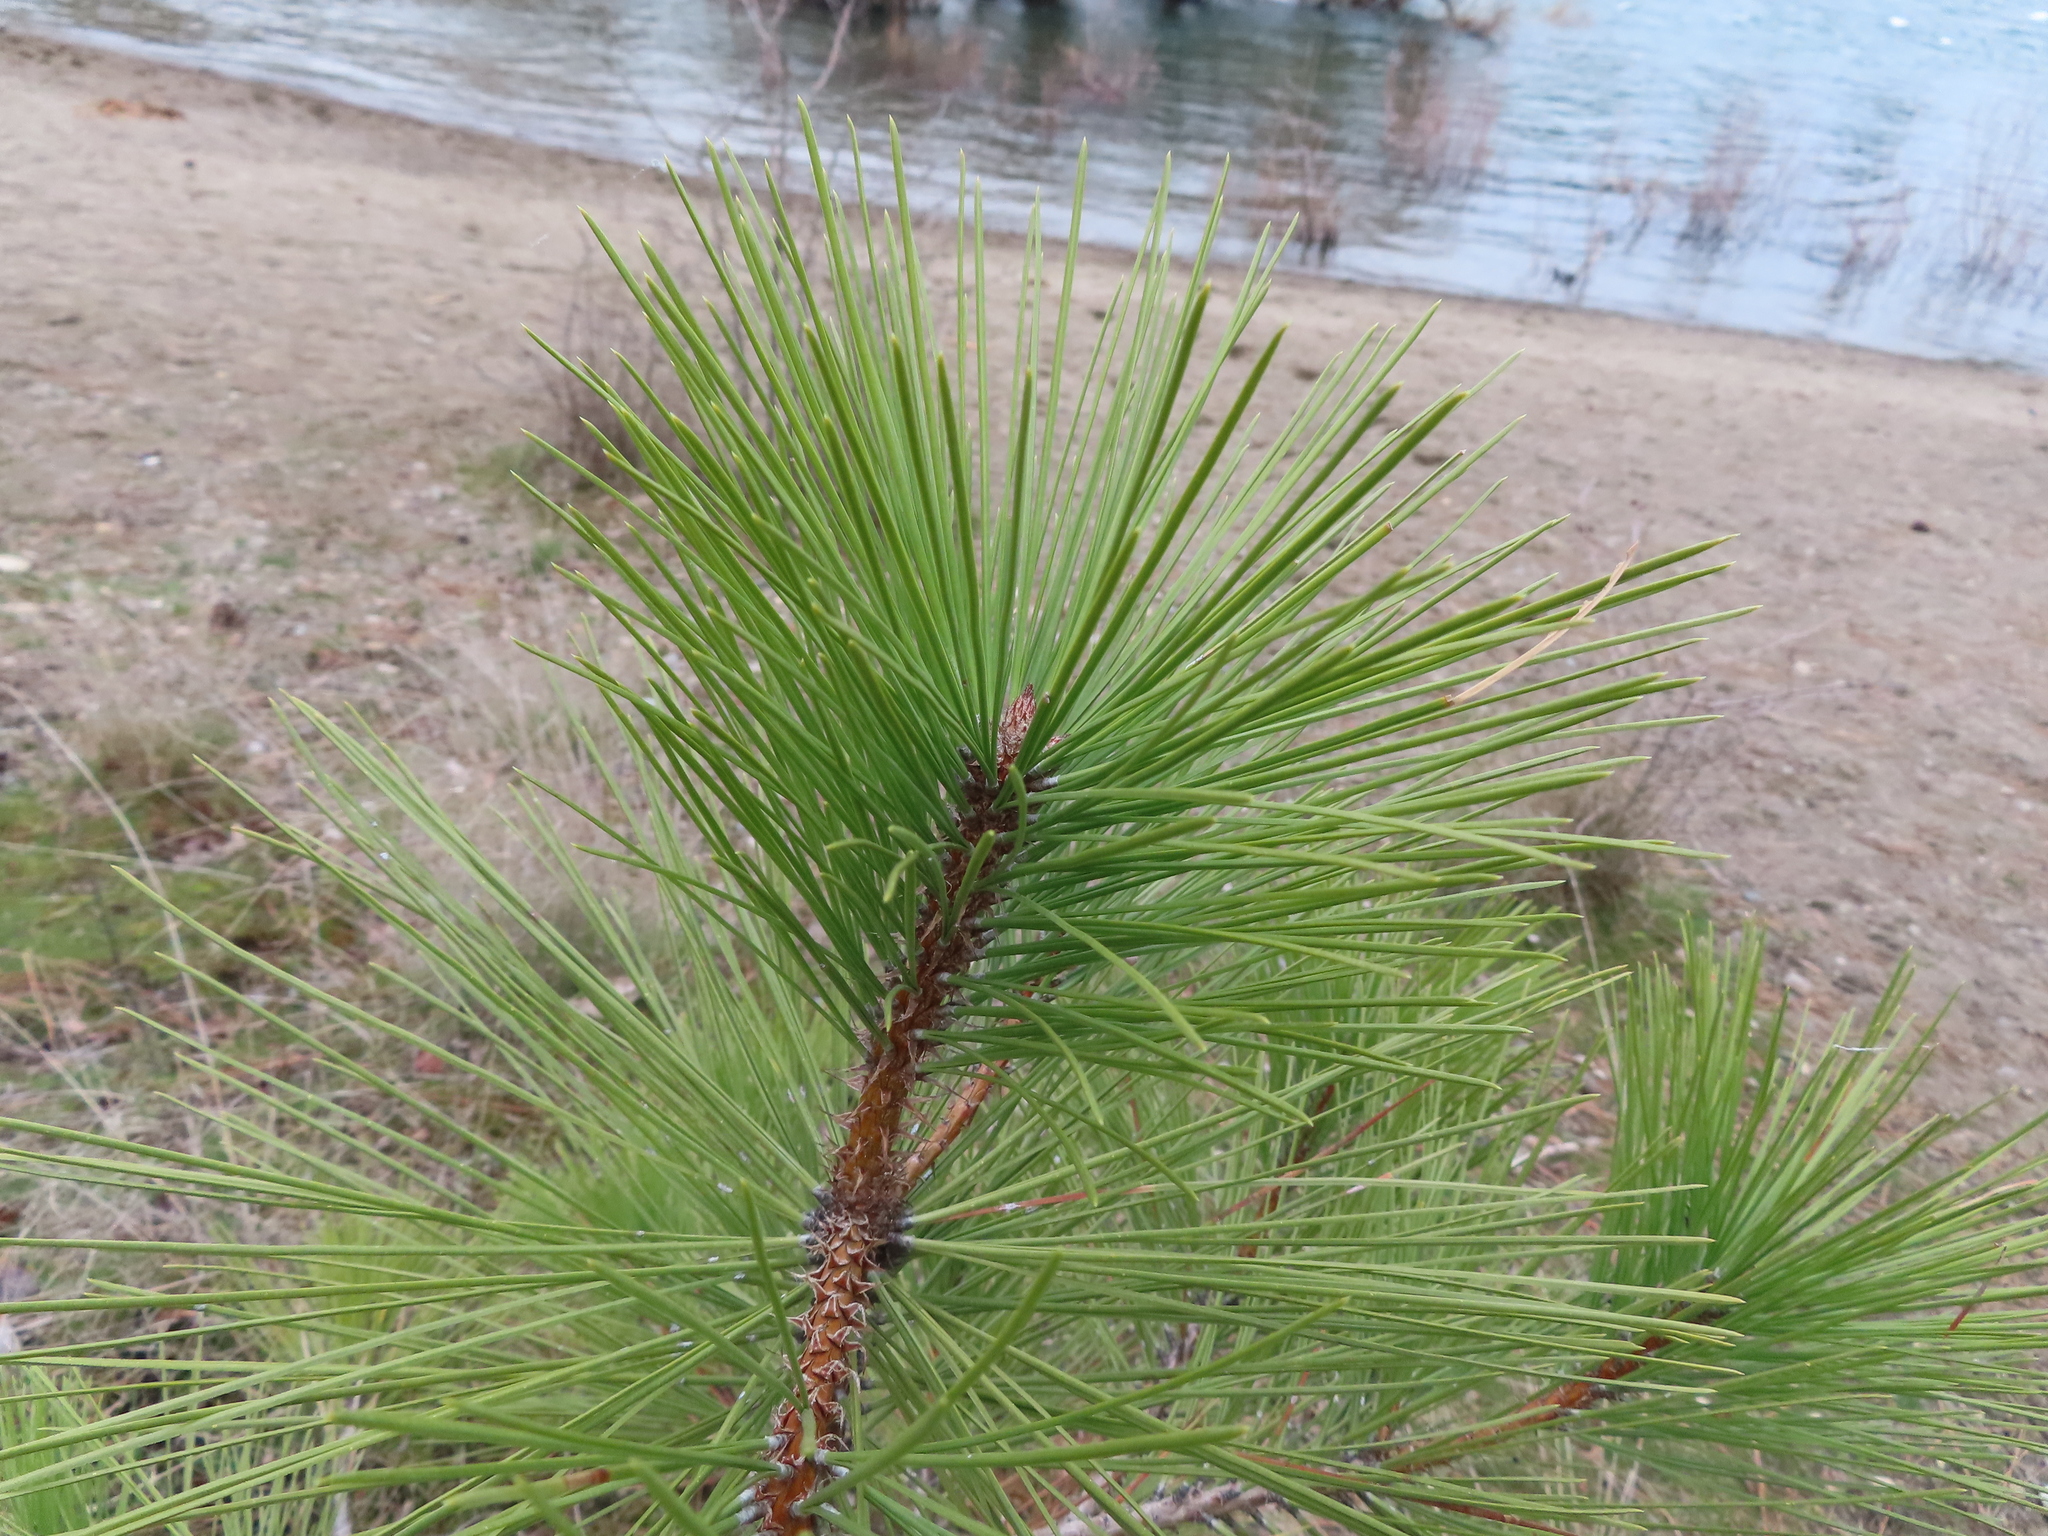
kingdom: Plantae
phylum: Tracheophyta
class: Pinopsida
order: Pinales
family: Pinaceae
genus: Pinus
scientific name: Pinus ponderosa
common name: Western yellow-pine
